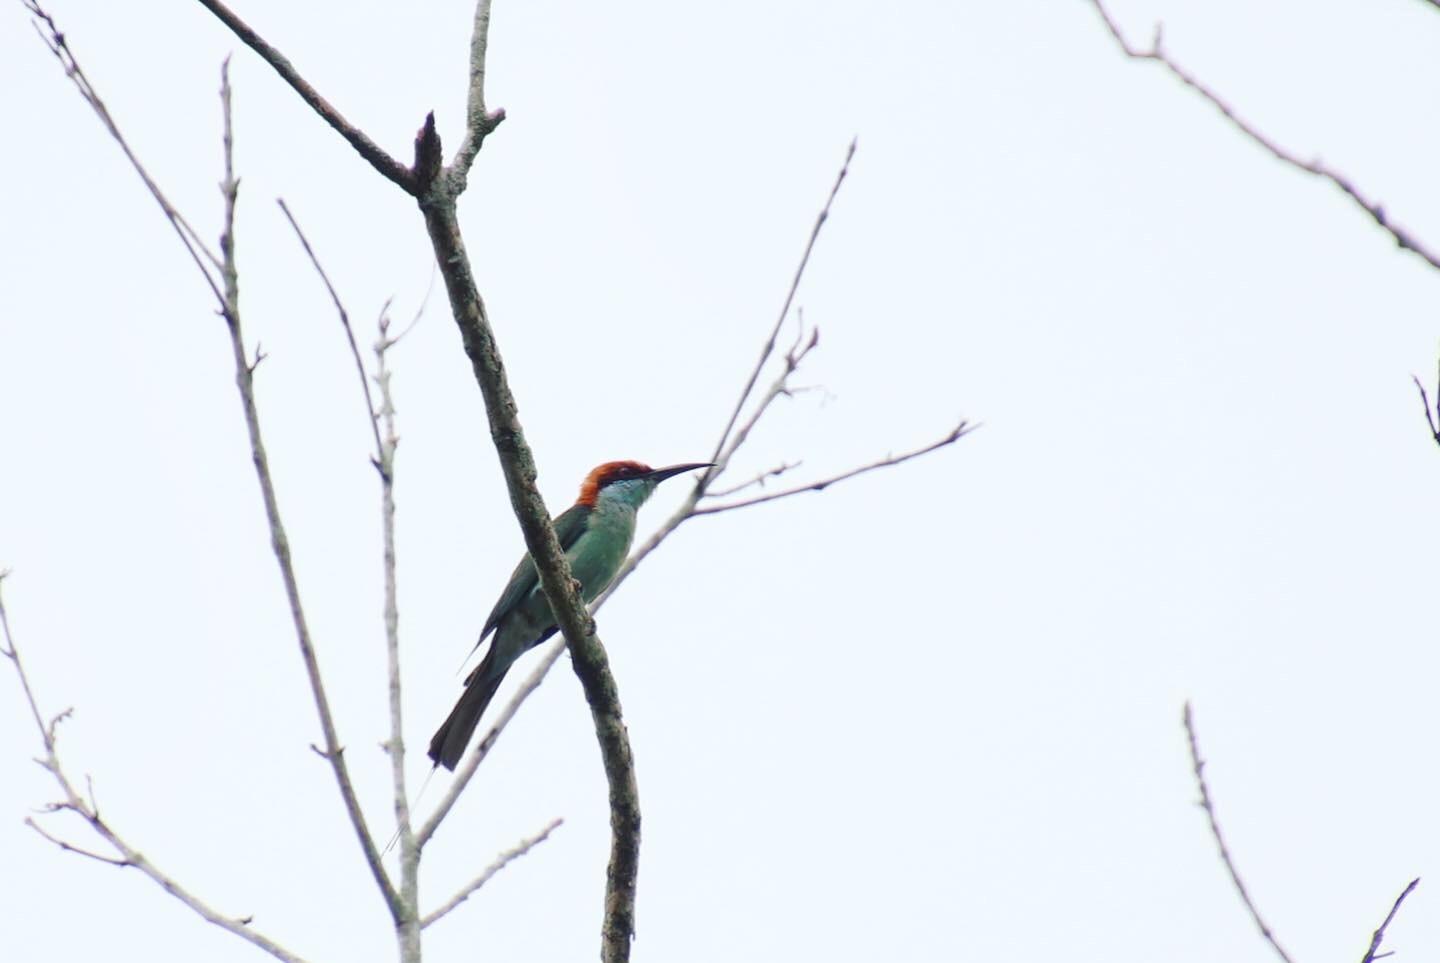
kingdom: Animalia
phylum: Chordata
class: Aves
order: Coraciiformes
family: Meropidae
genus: Merops
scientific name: Merops americanus
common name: Rufous-crowned bee-eater
